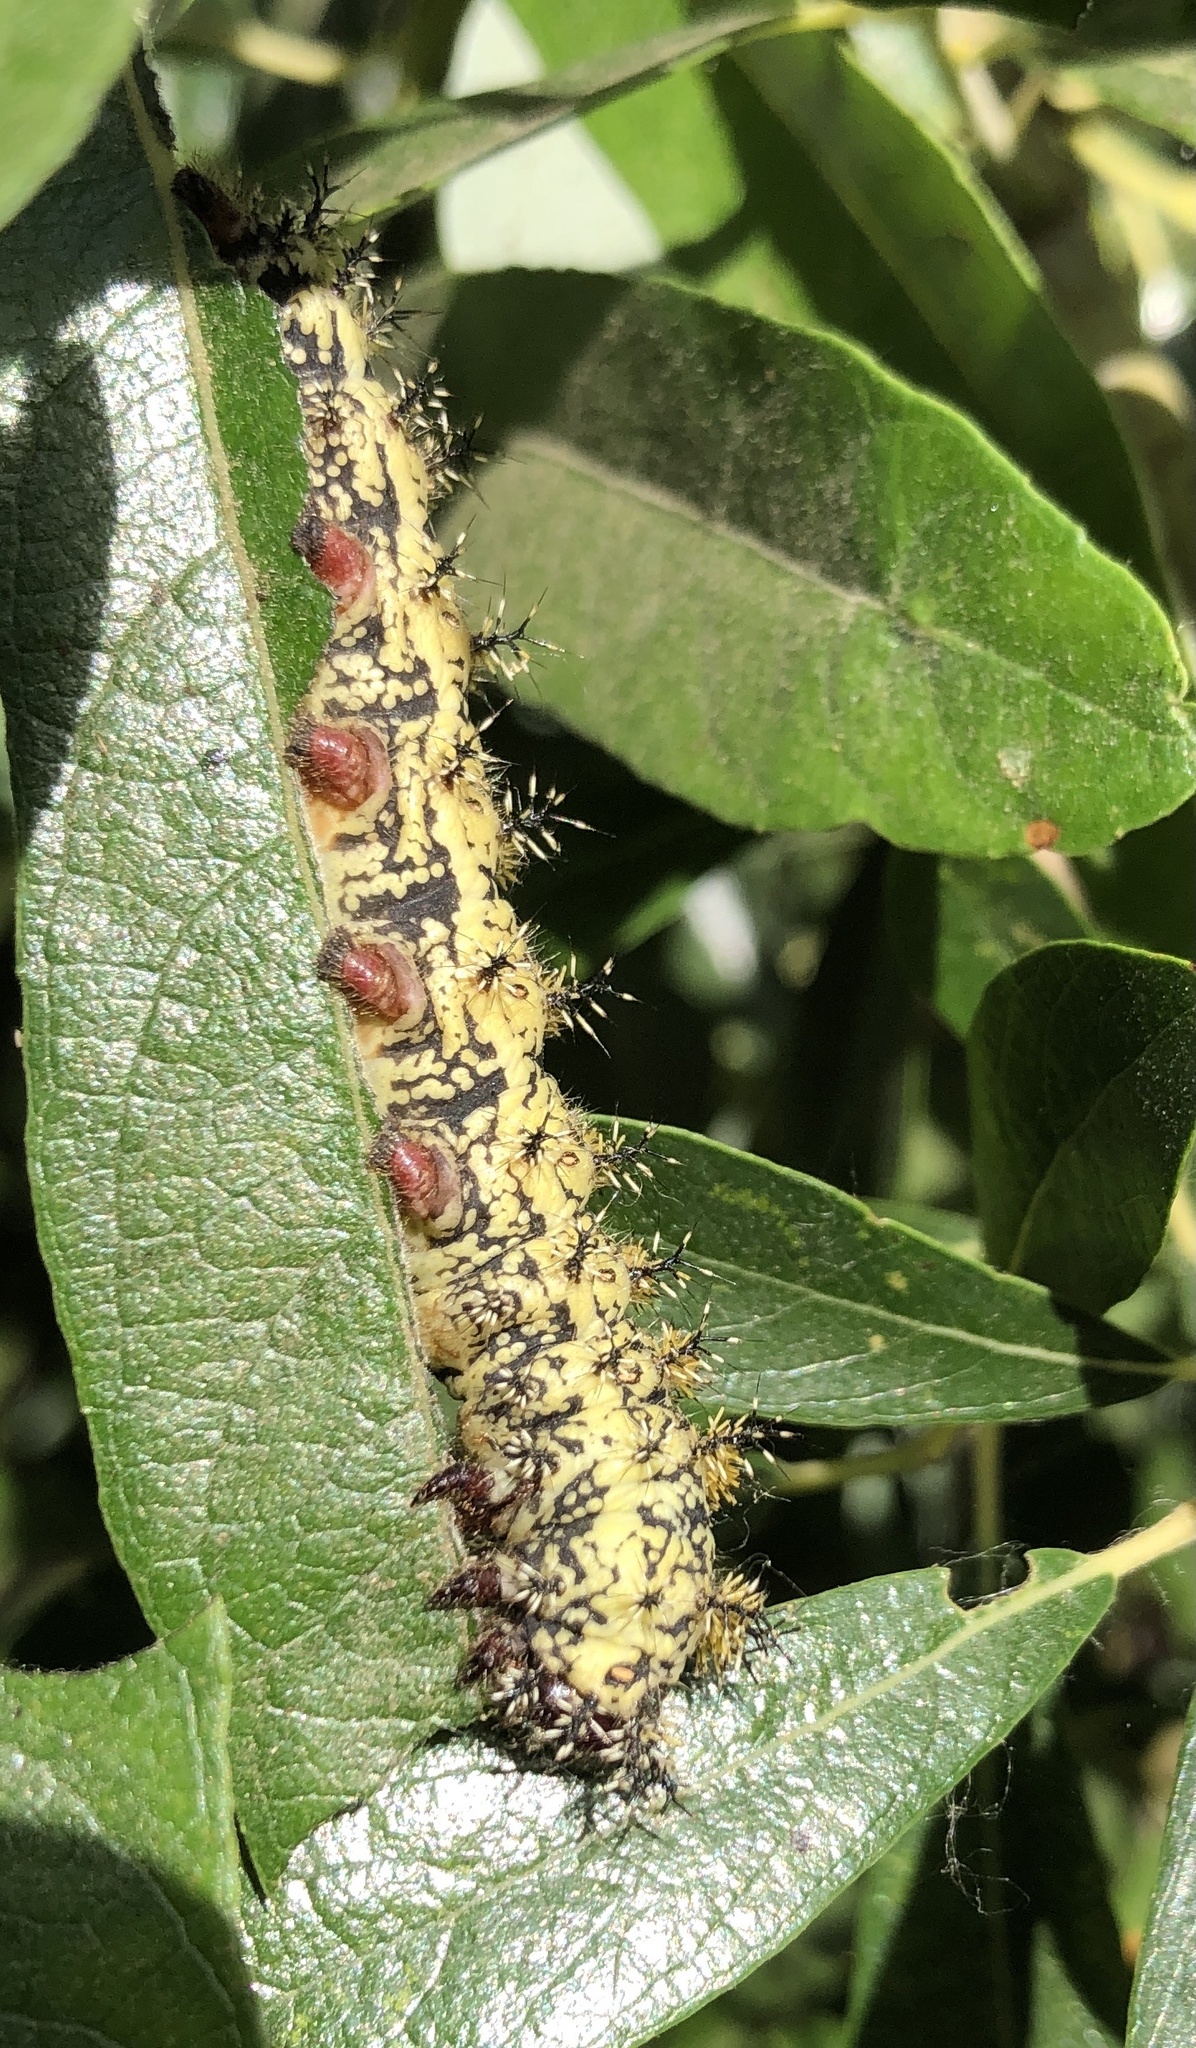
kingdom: Animalia
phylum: Arthropoda
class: Insecta
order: Lepidoptera
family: Saturniidae
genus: Hemileuca
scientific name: Hemileuca nevadensis
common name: Nevada buckmoth
